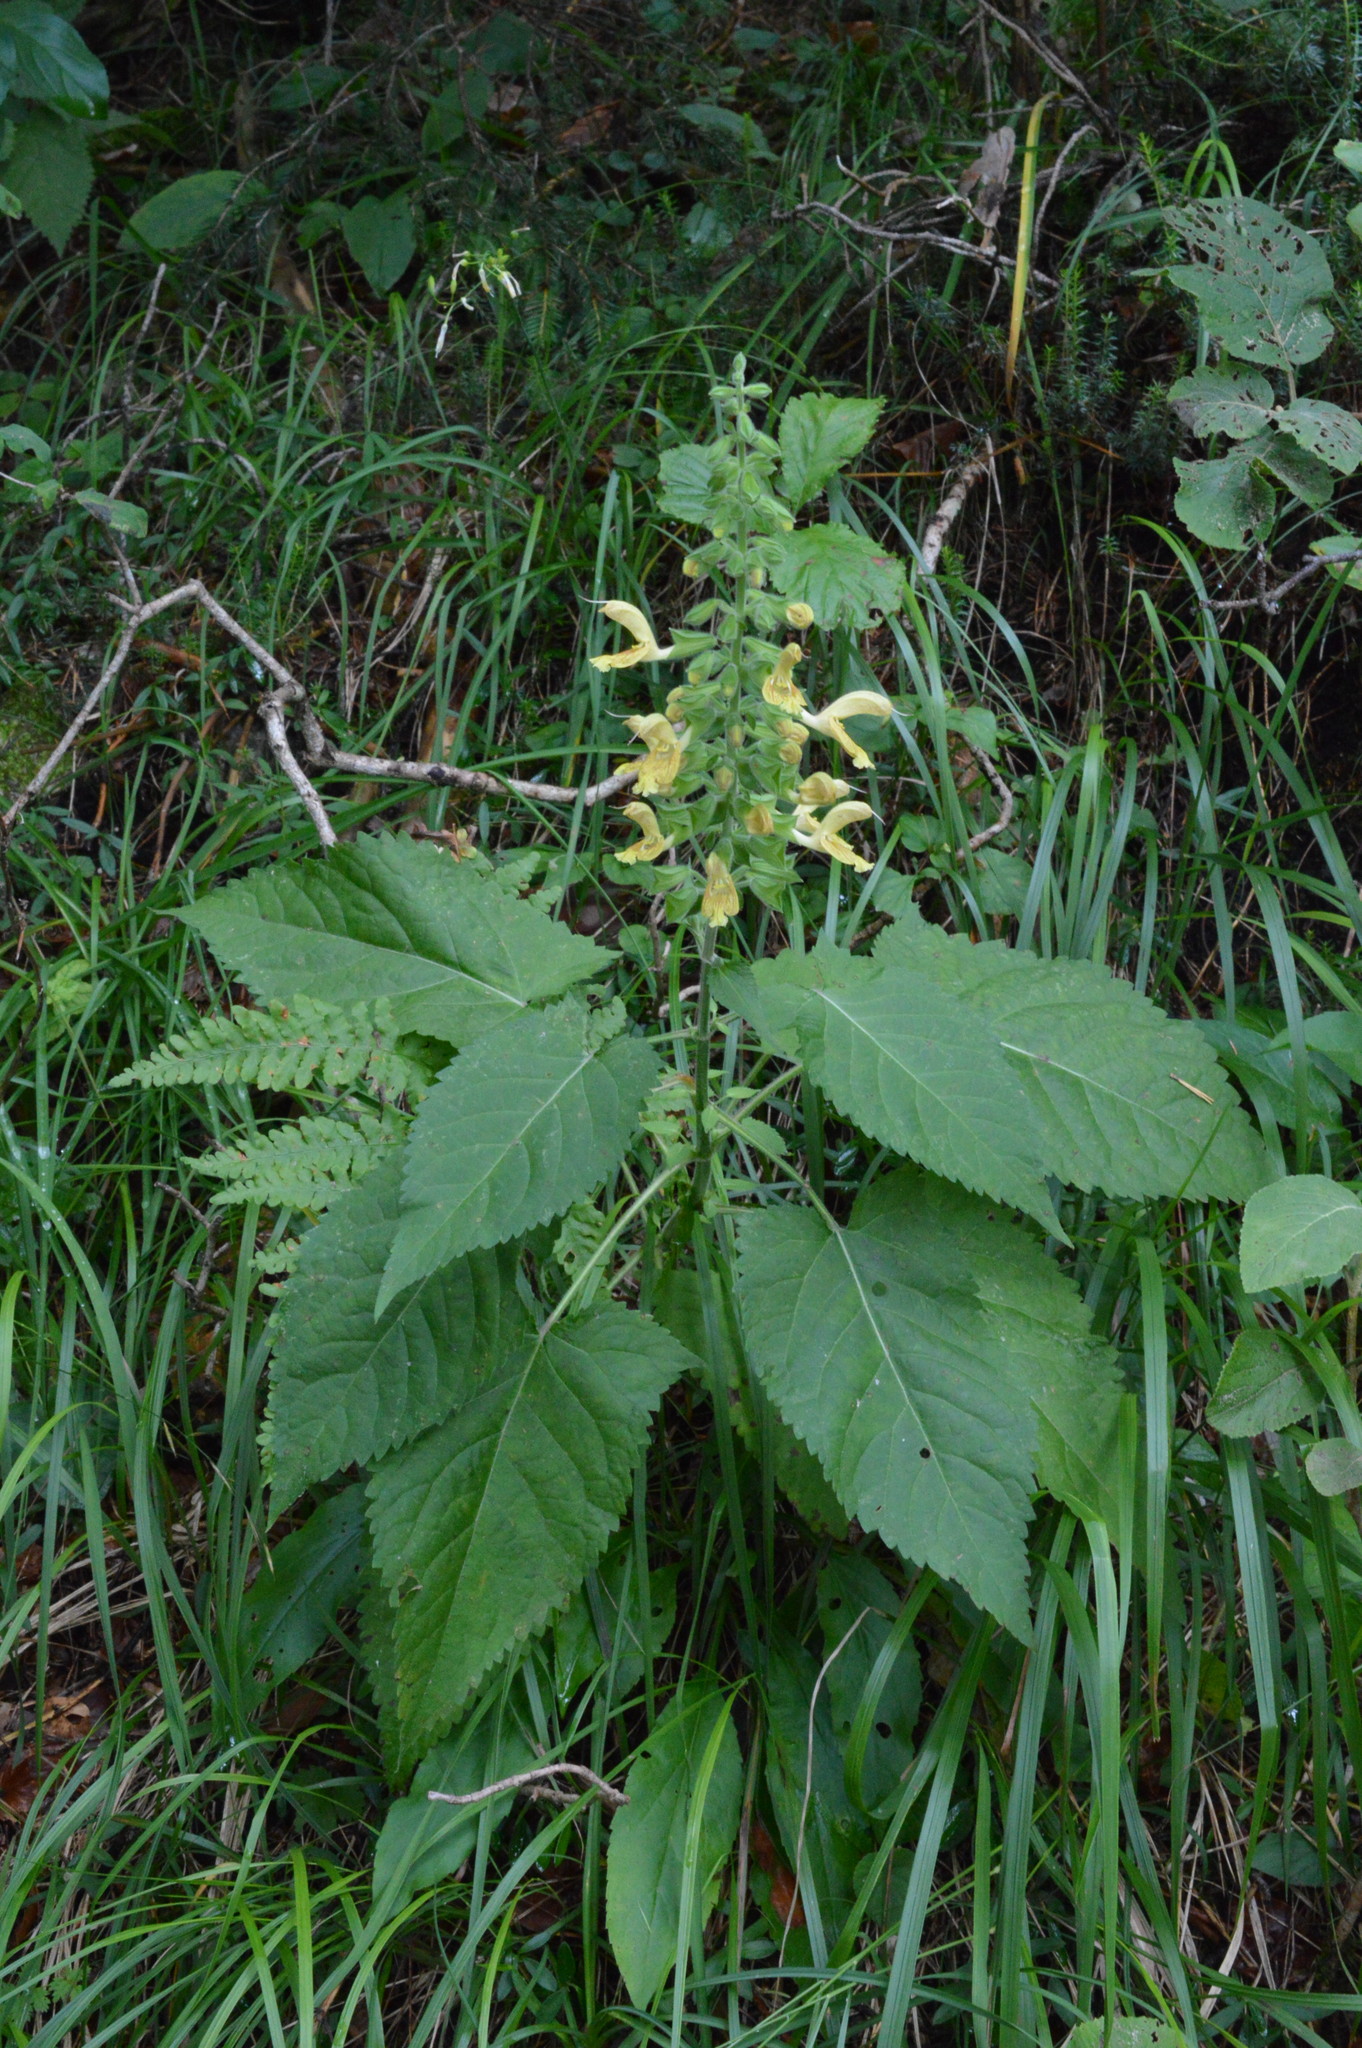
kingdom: Plantae
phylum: Tracheophyta
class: Magnoliopsida
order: Lamiales
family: Lamiaceae
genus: Salvia
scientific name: Salvia glutinosa
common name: Sticky clary
